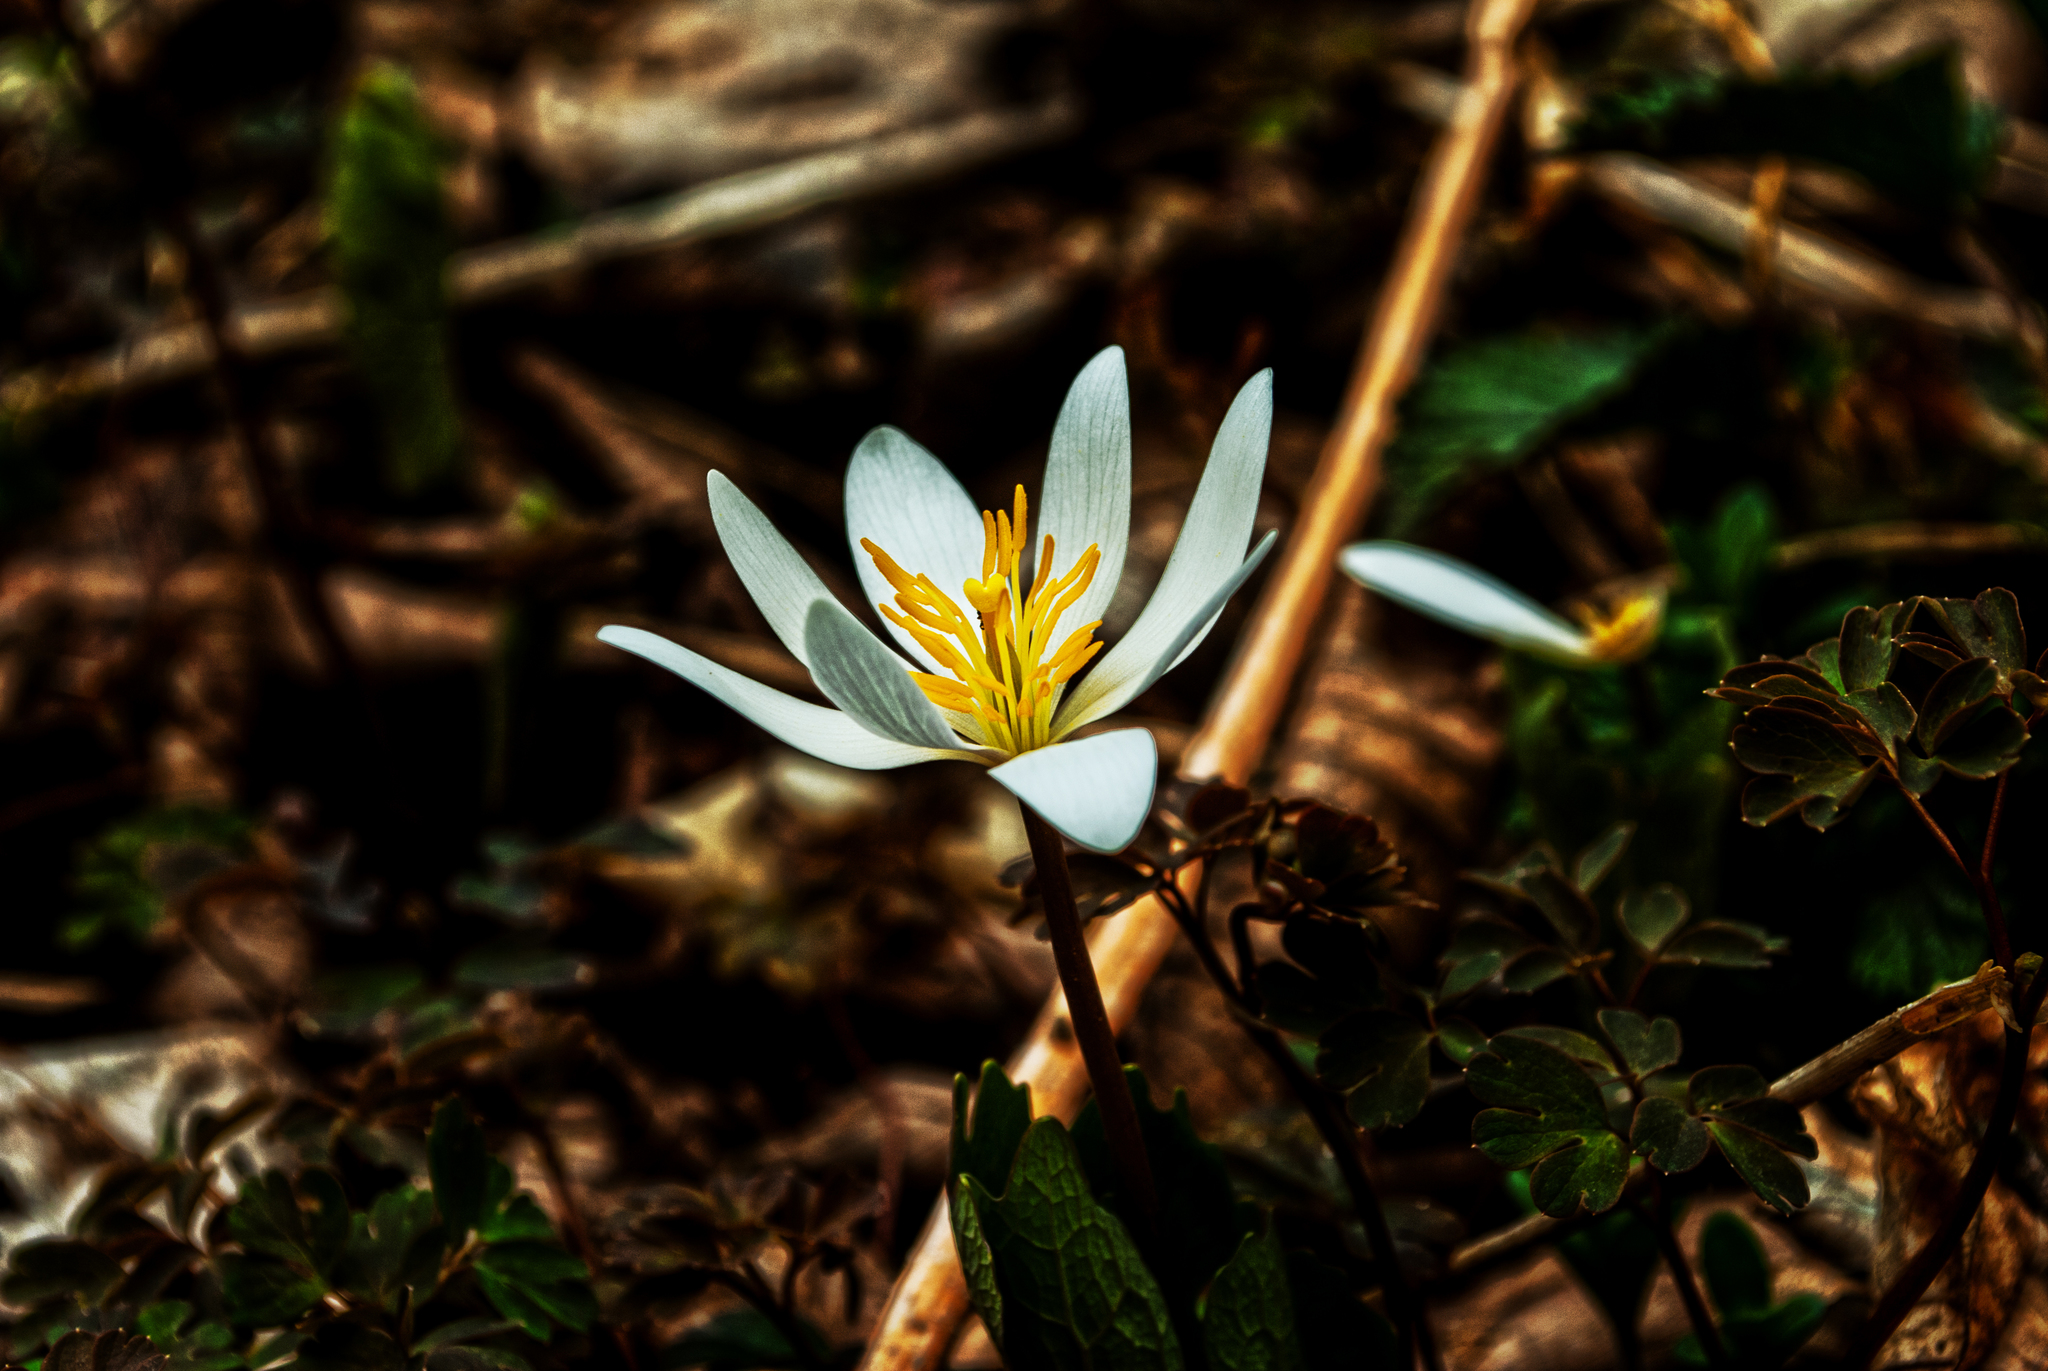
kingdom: Plantae
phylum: Tracheophyta
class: Magnoliopsida
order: Ranunculales
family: Papaveraceae
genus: Sanguinaria
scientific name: Sanguinaria canadensis
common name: Bloodroot
